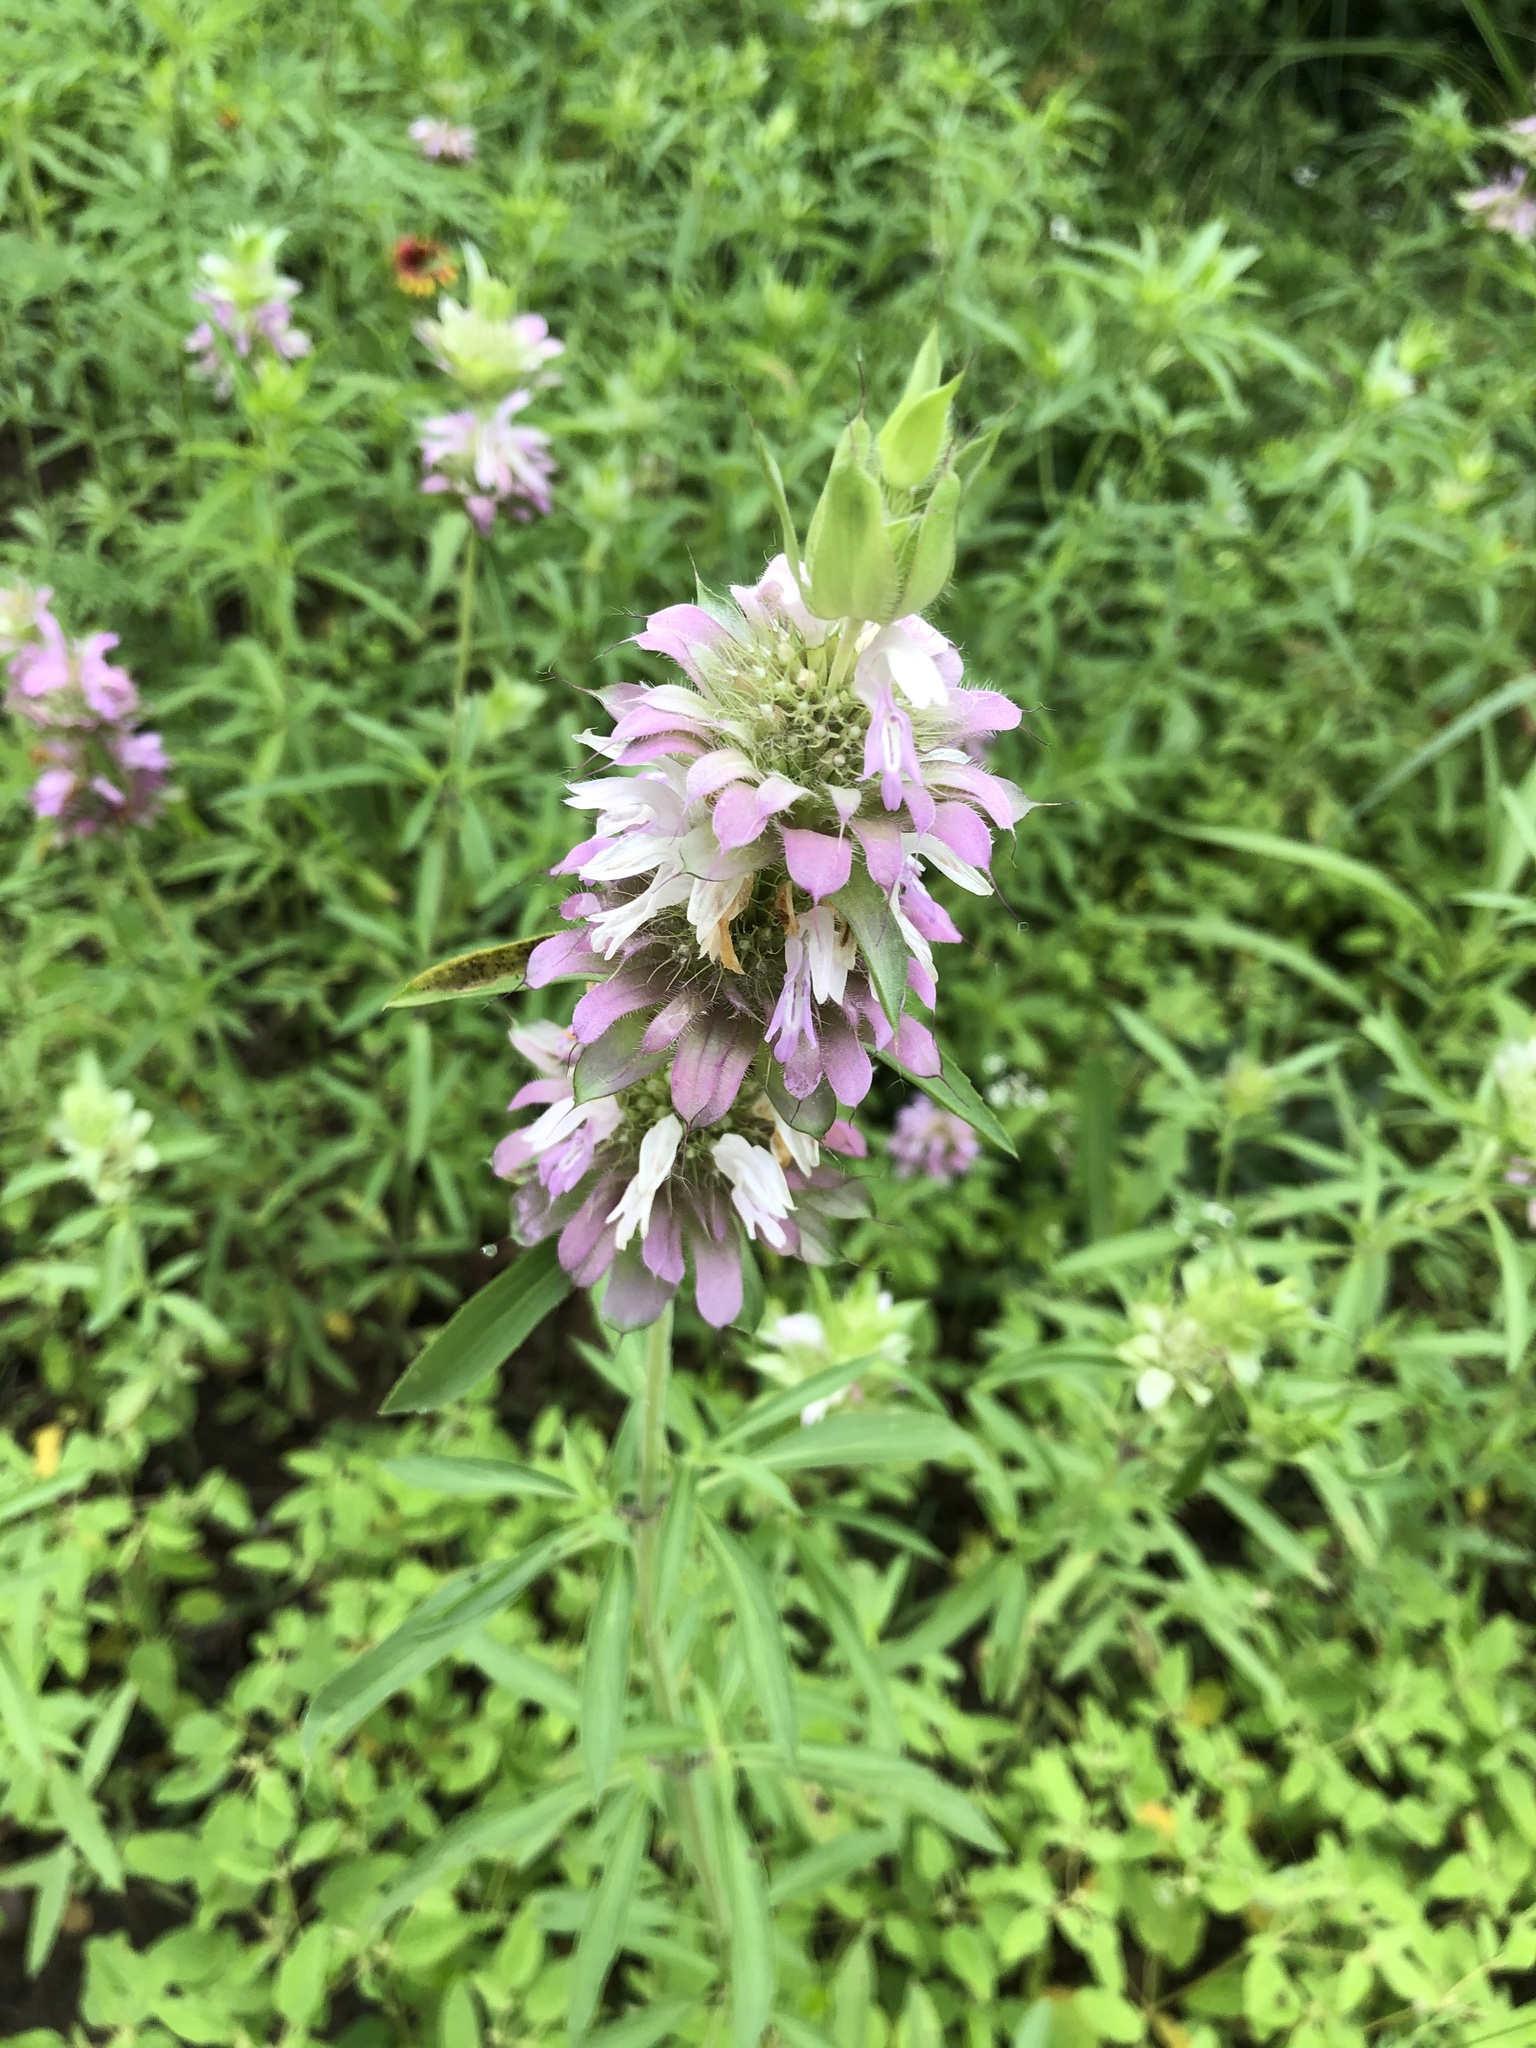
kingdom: Plantae
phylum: Tracheophyta
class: Magnoliopsida
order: Lamiales
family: Lamiaceae
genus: Monarda
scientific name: Monarda citriodora
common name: Lemon beebalm
